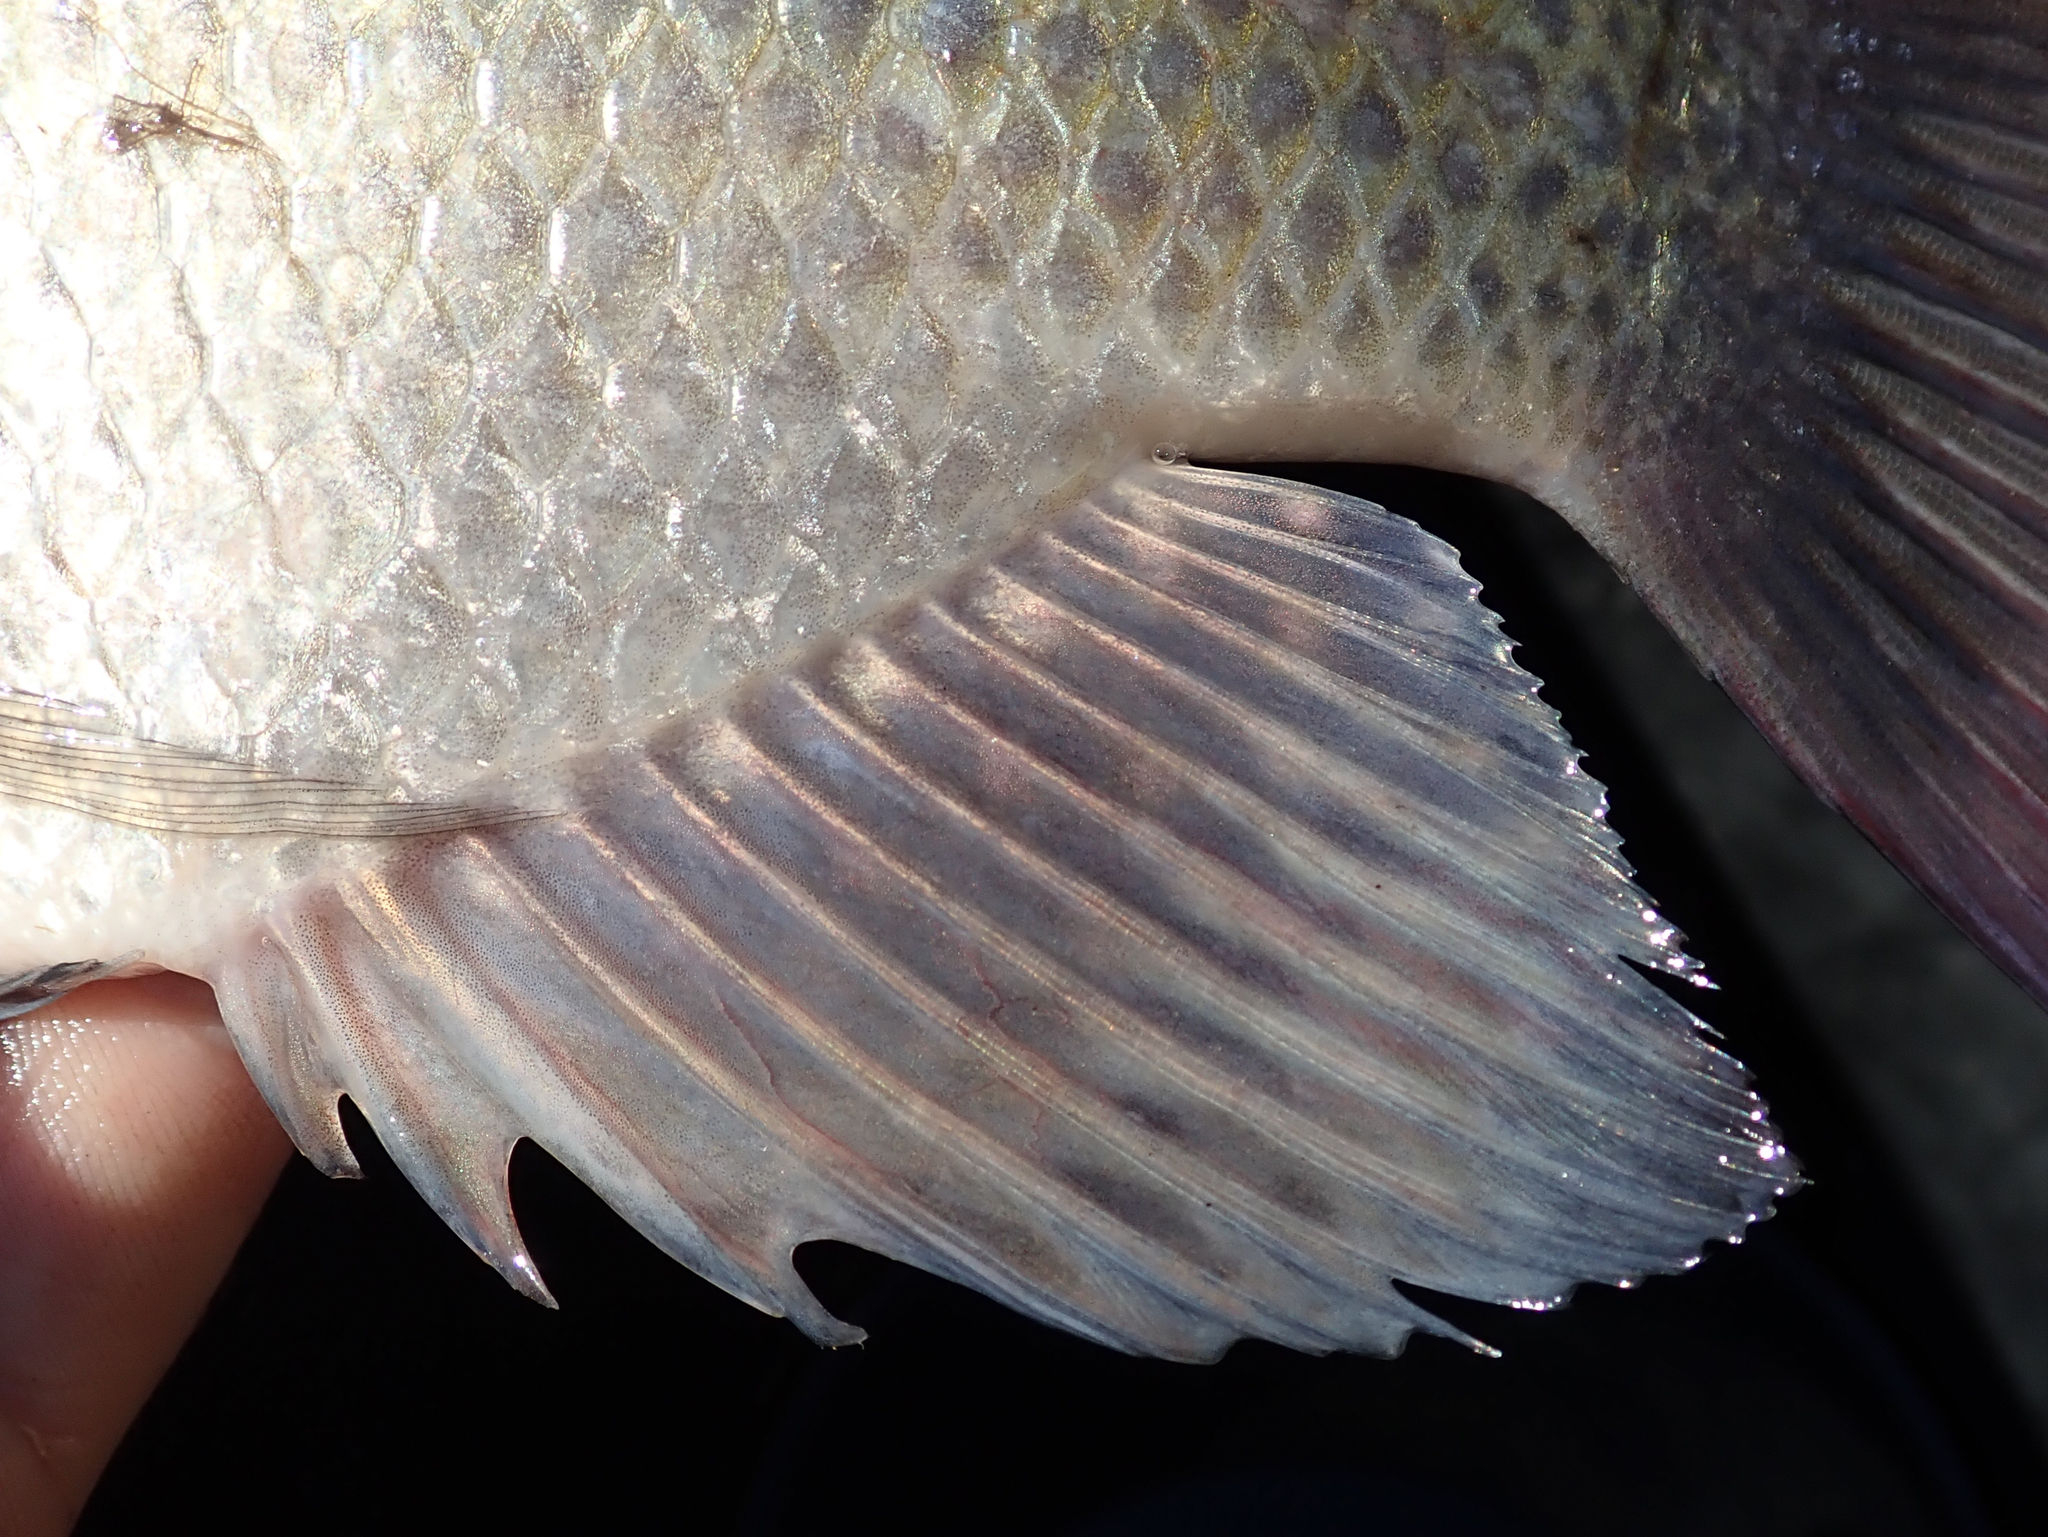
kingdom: Animalia
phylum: Chordata
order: Perciformes
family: Cichlidae
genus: Oreochromis
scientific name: Oreochromis andersonii
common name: Threespot tilapia
